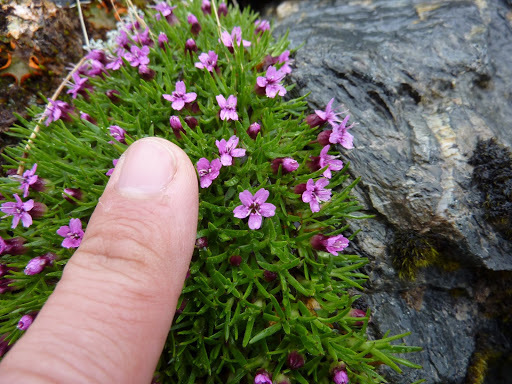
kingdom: Plantae
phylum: Tracheophyta
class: Magnoliopsida
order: Caryophyllales
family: Caryophyllaceae
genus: Silene
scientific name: Silene acaulis
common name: Moss campion
